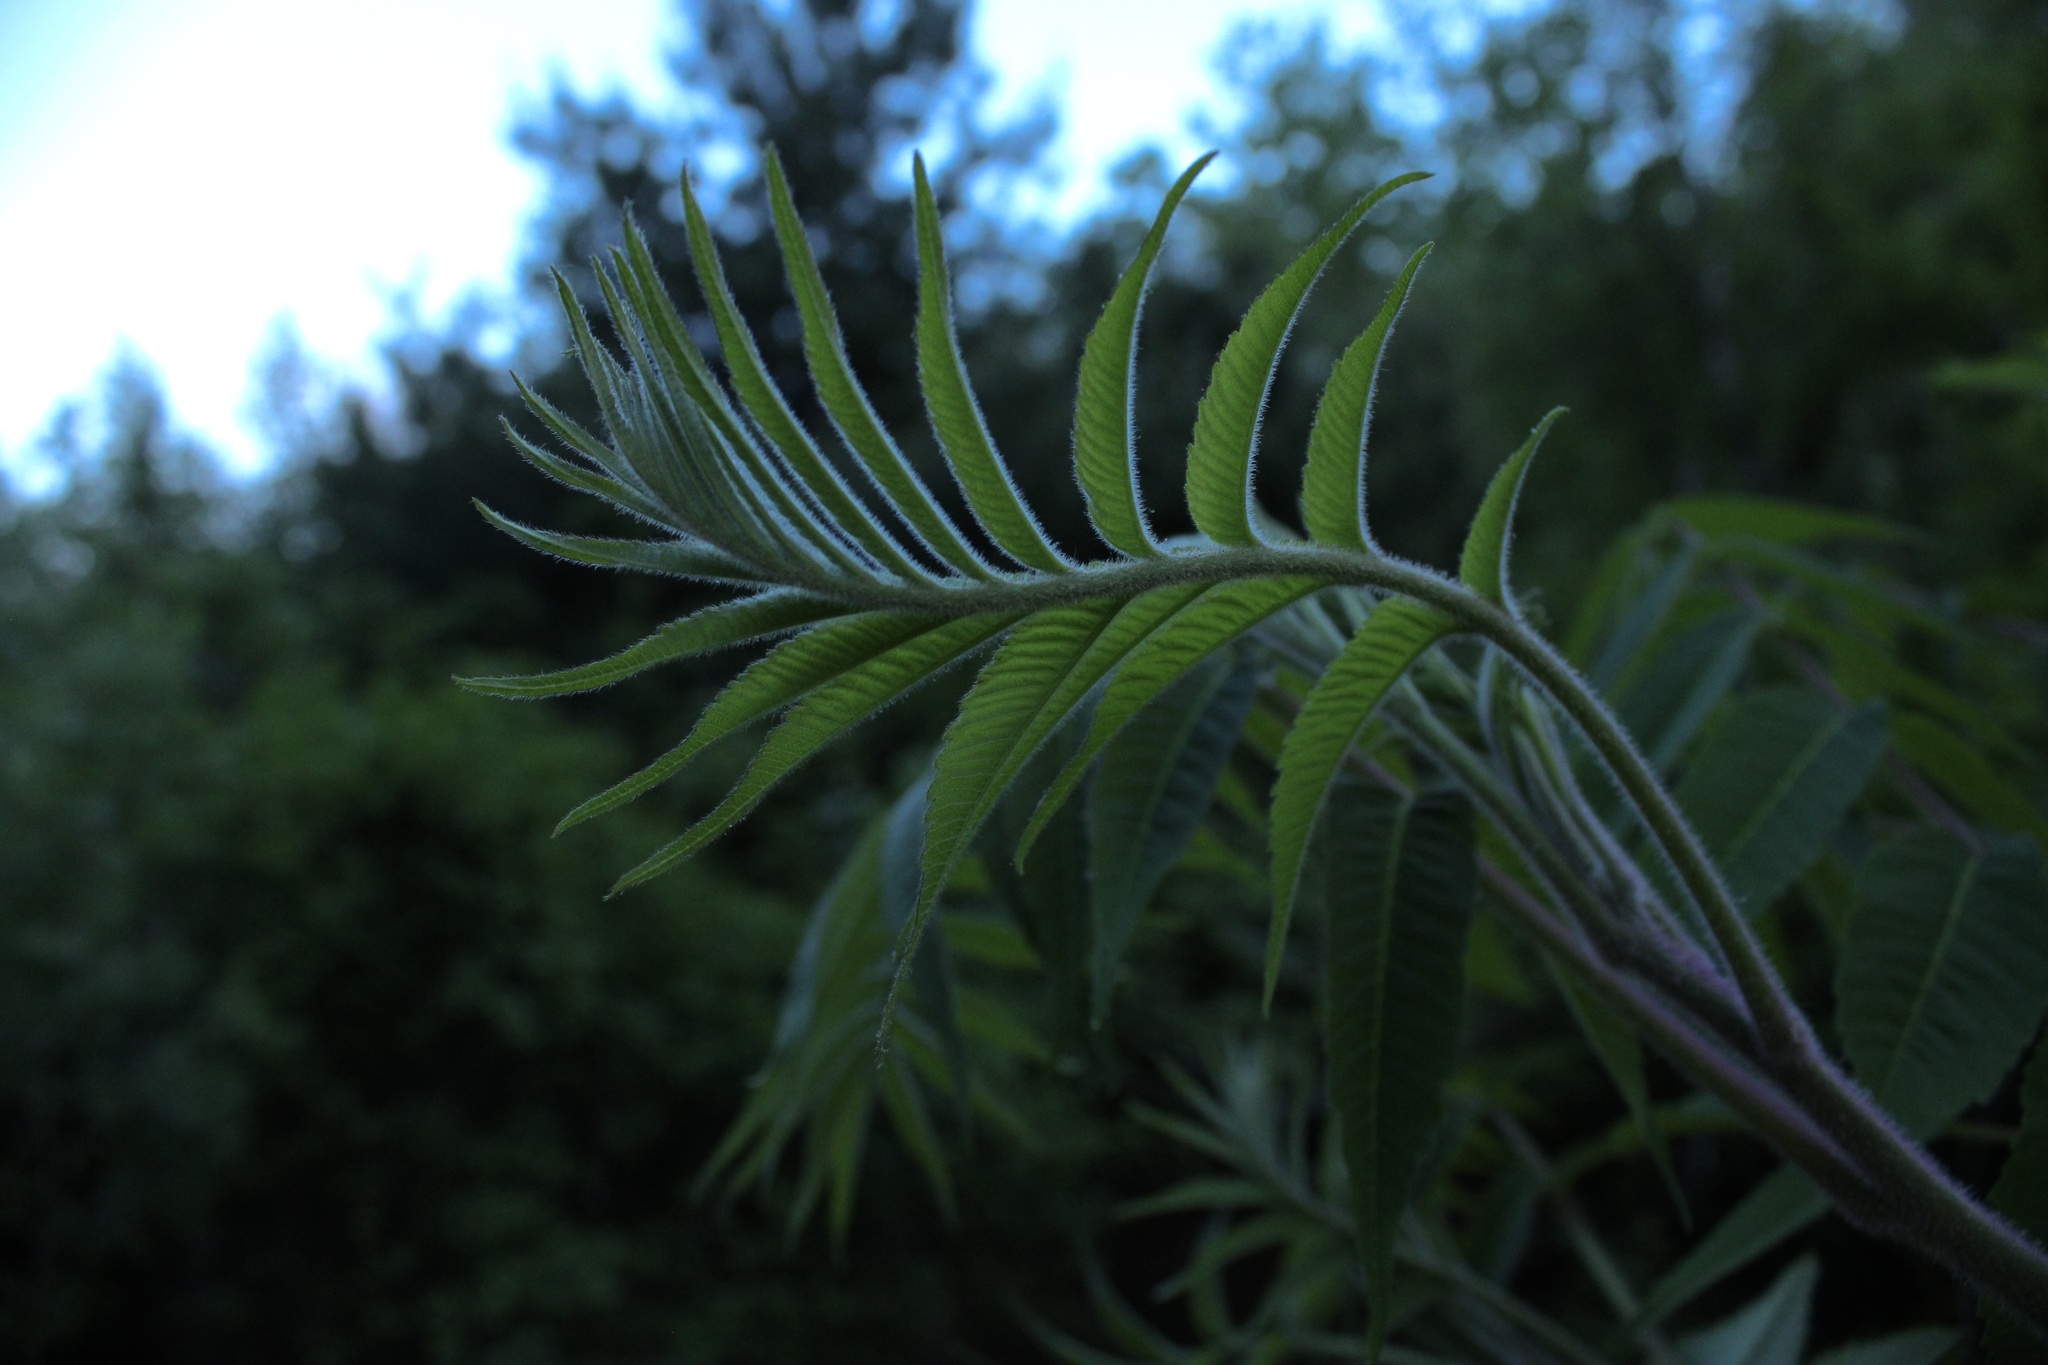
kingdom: Plantae
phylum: Tracheophyta
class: Magnoliopsida
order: Sapindales
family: Anacardiaceae
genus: Rhus
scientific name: Rhus typhina
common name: Staghorn sumac
